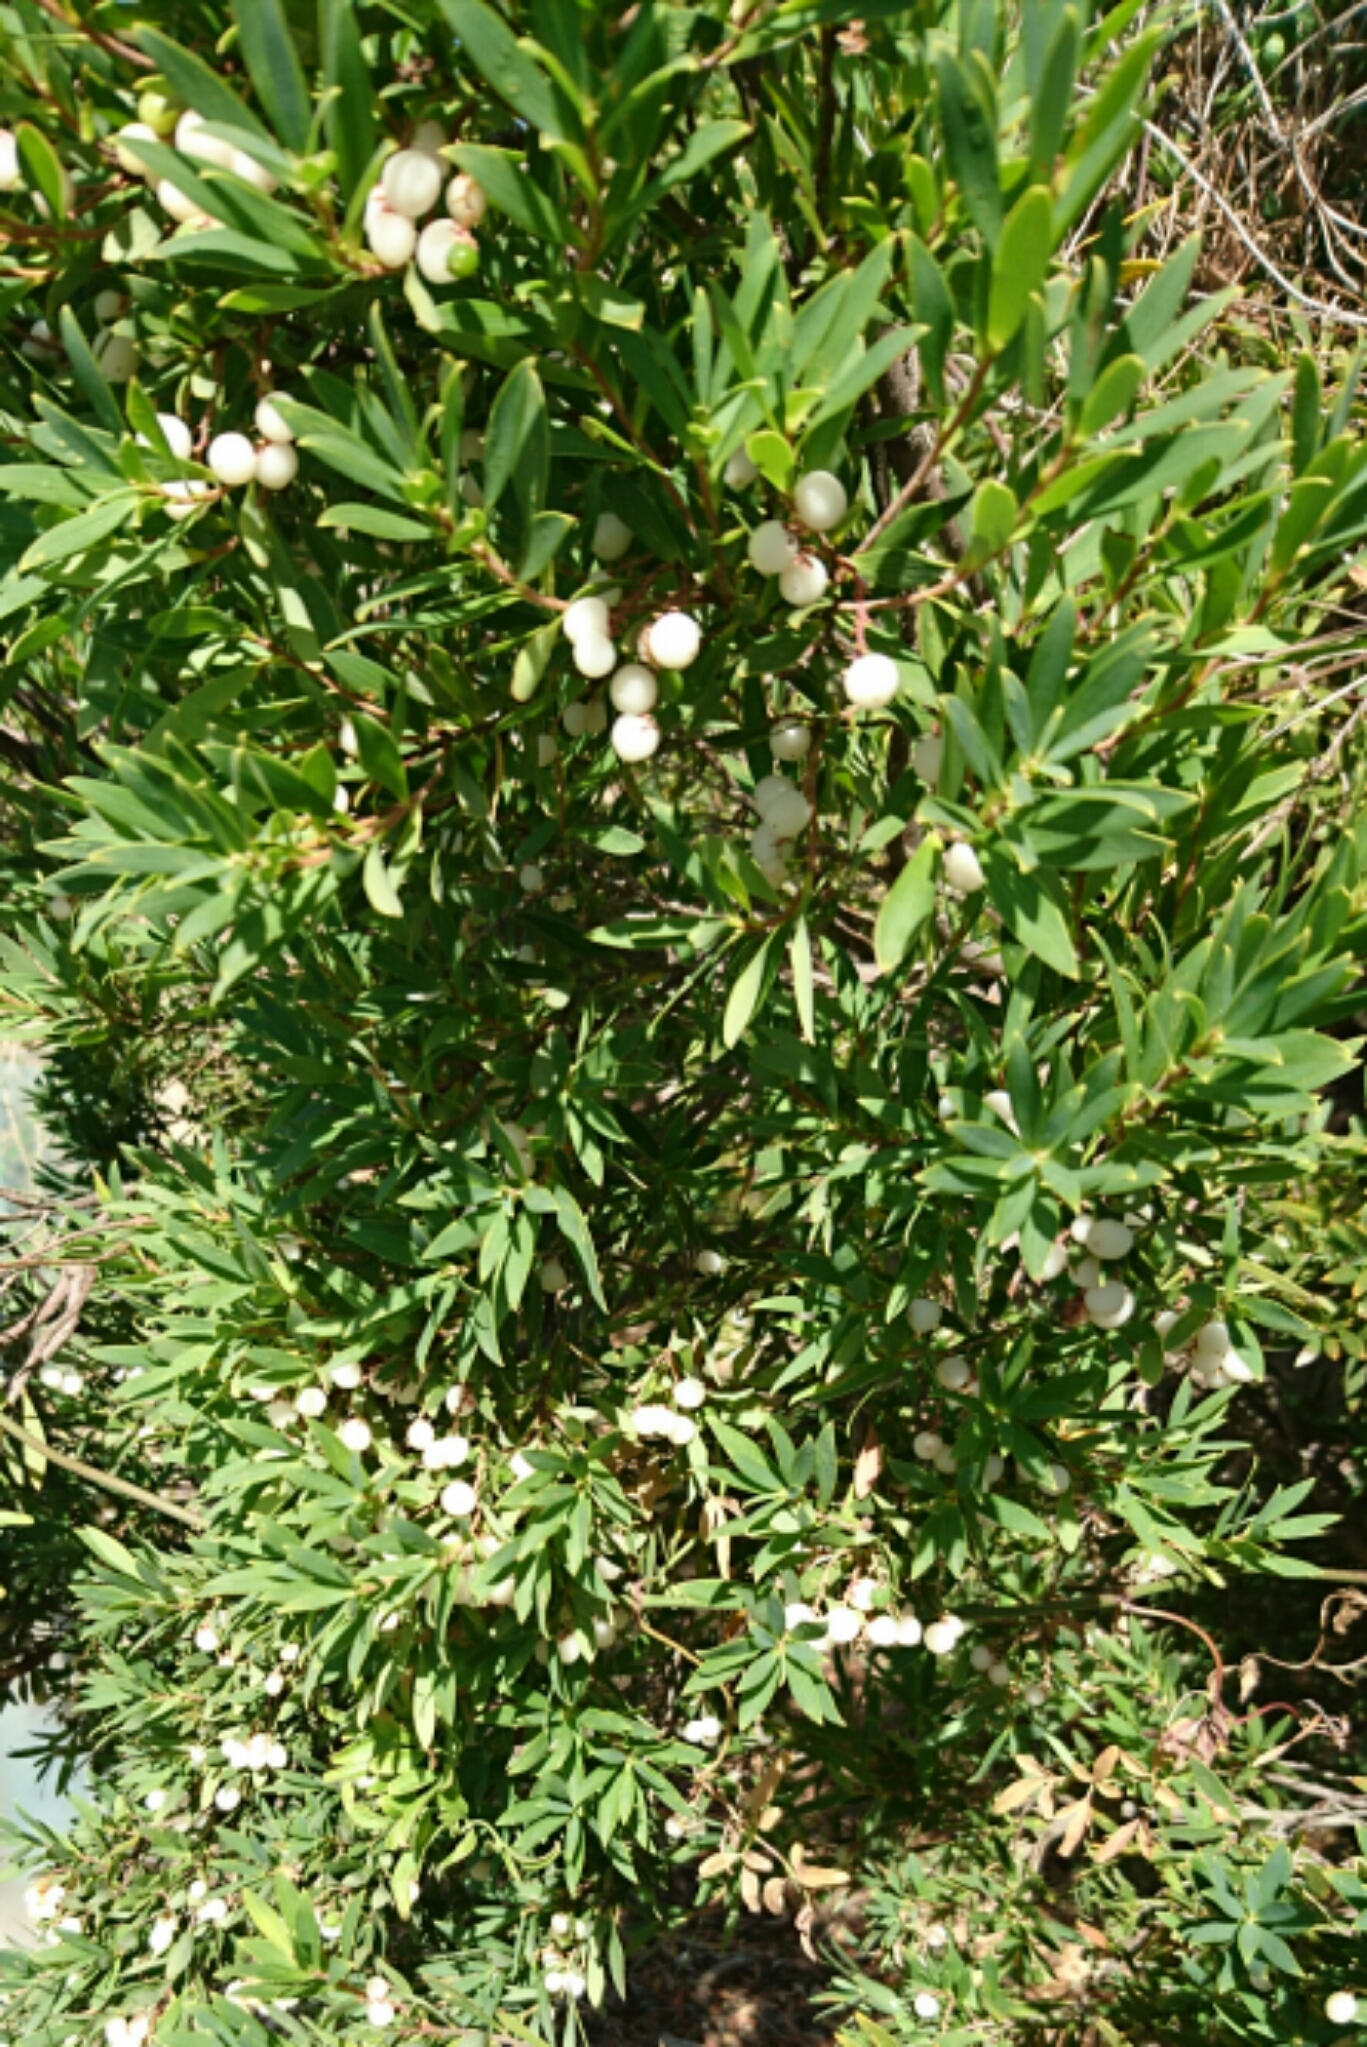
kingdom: Plantae
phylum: Tracheophyta
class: Magnoliopsida
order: Ericales
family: Ericaceae
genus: Leptecophylla
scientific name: Leptecophylla parvifolia
